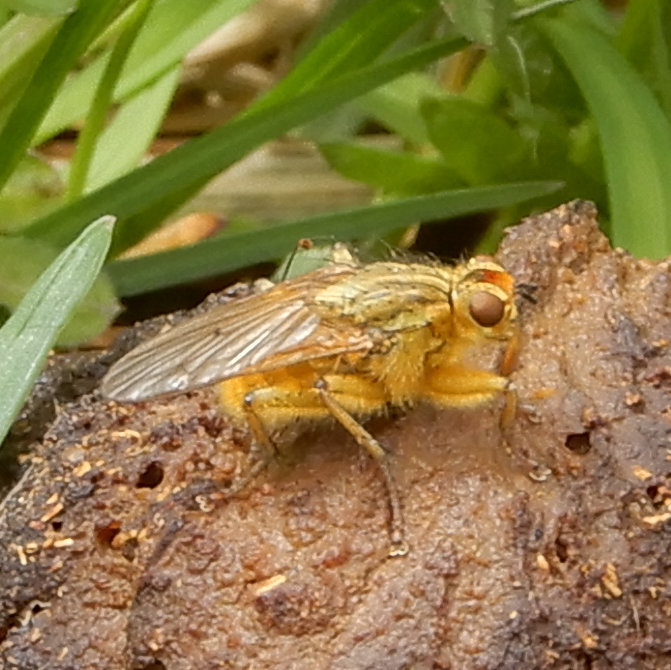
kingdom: Animalia
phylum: Arthropoda
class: Insecta
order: Diptera
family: Scathophagidae
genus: Scathophaga
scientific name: Scathophaga stercoraria
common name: Yellow dung fly
